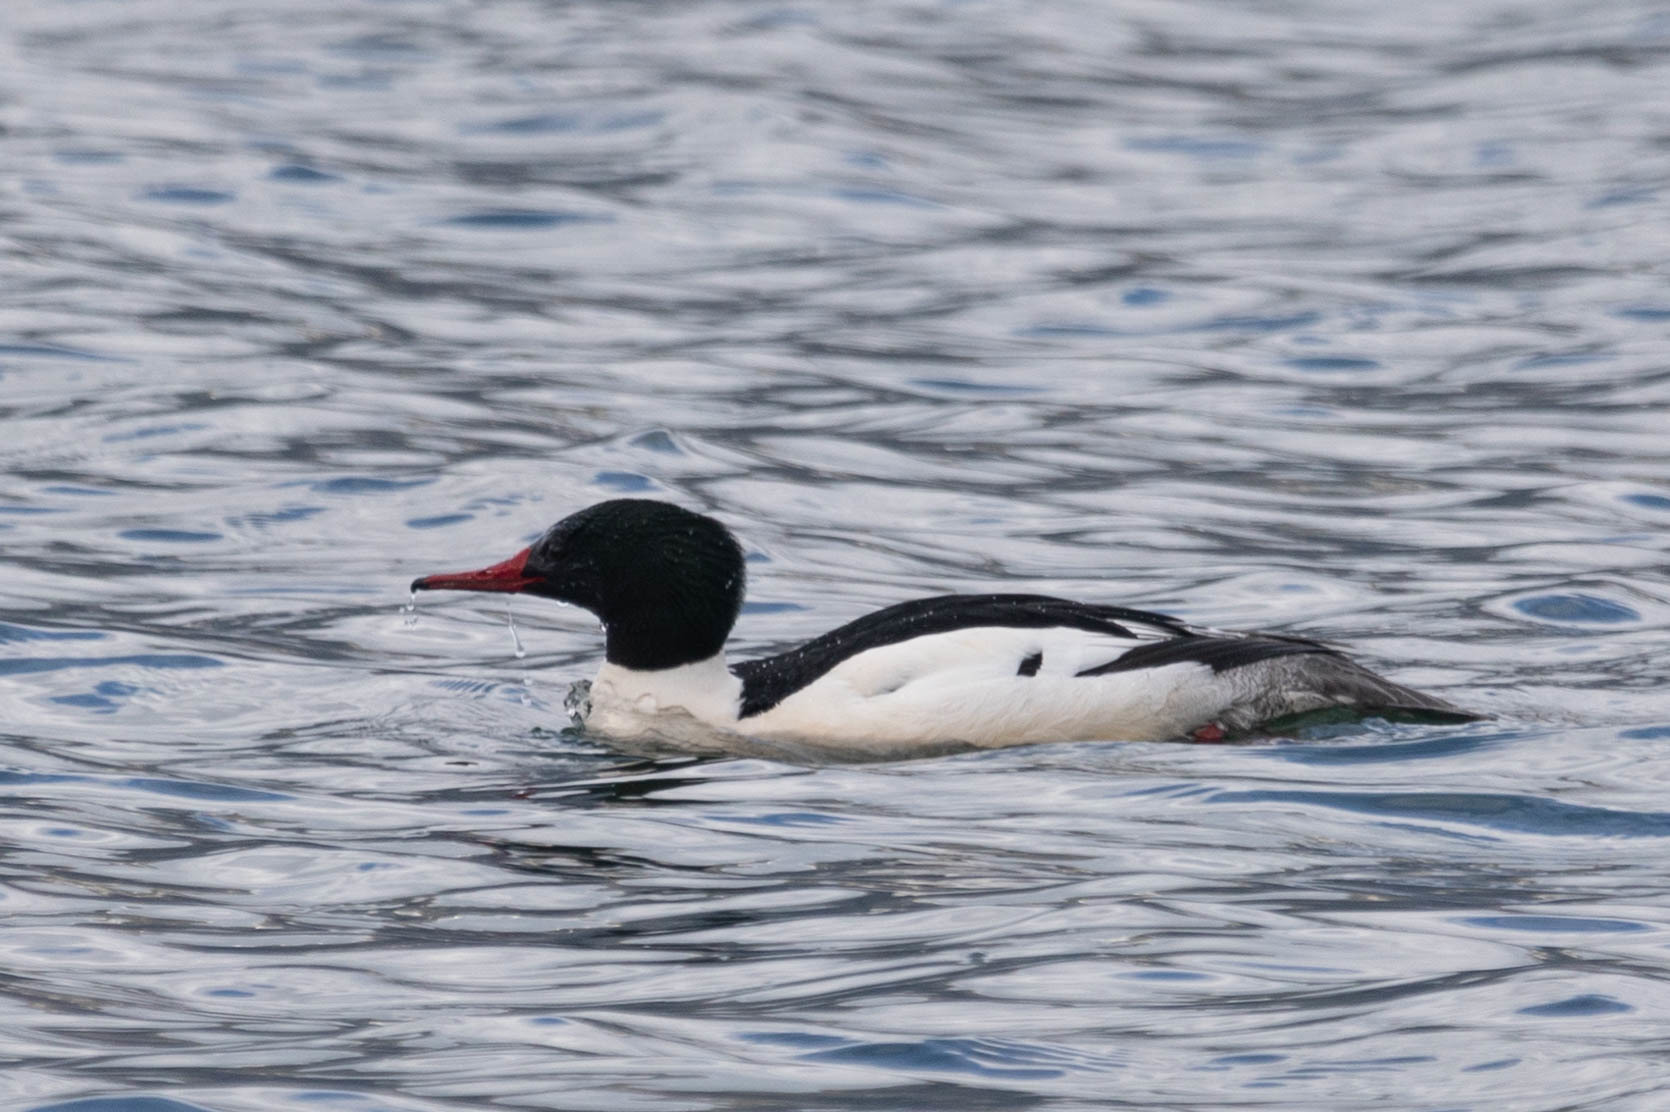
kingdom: Animalia
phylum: Chordata
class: Aves
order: Anseriformes
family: Anatidae
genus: Mergus
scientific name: Mergus merganser
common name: Common merganser
